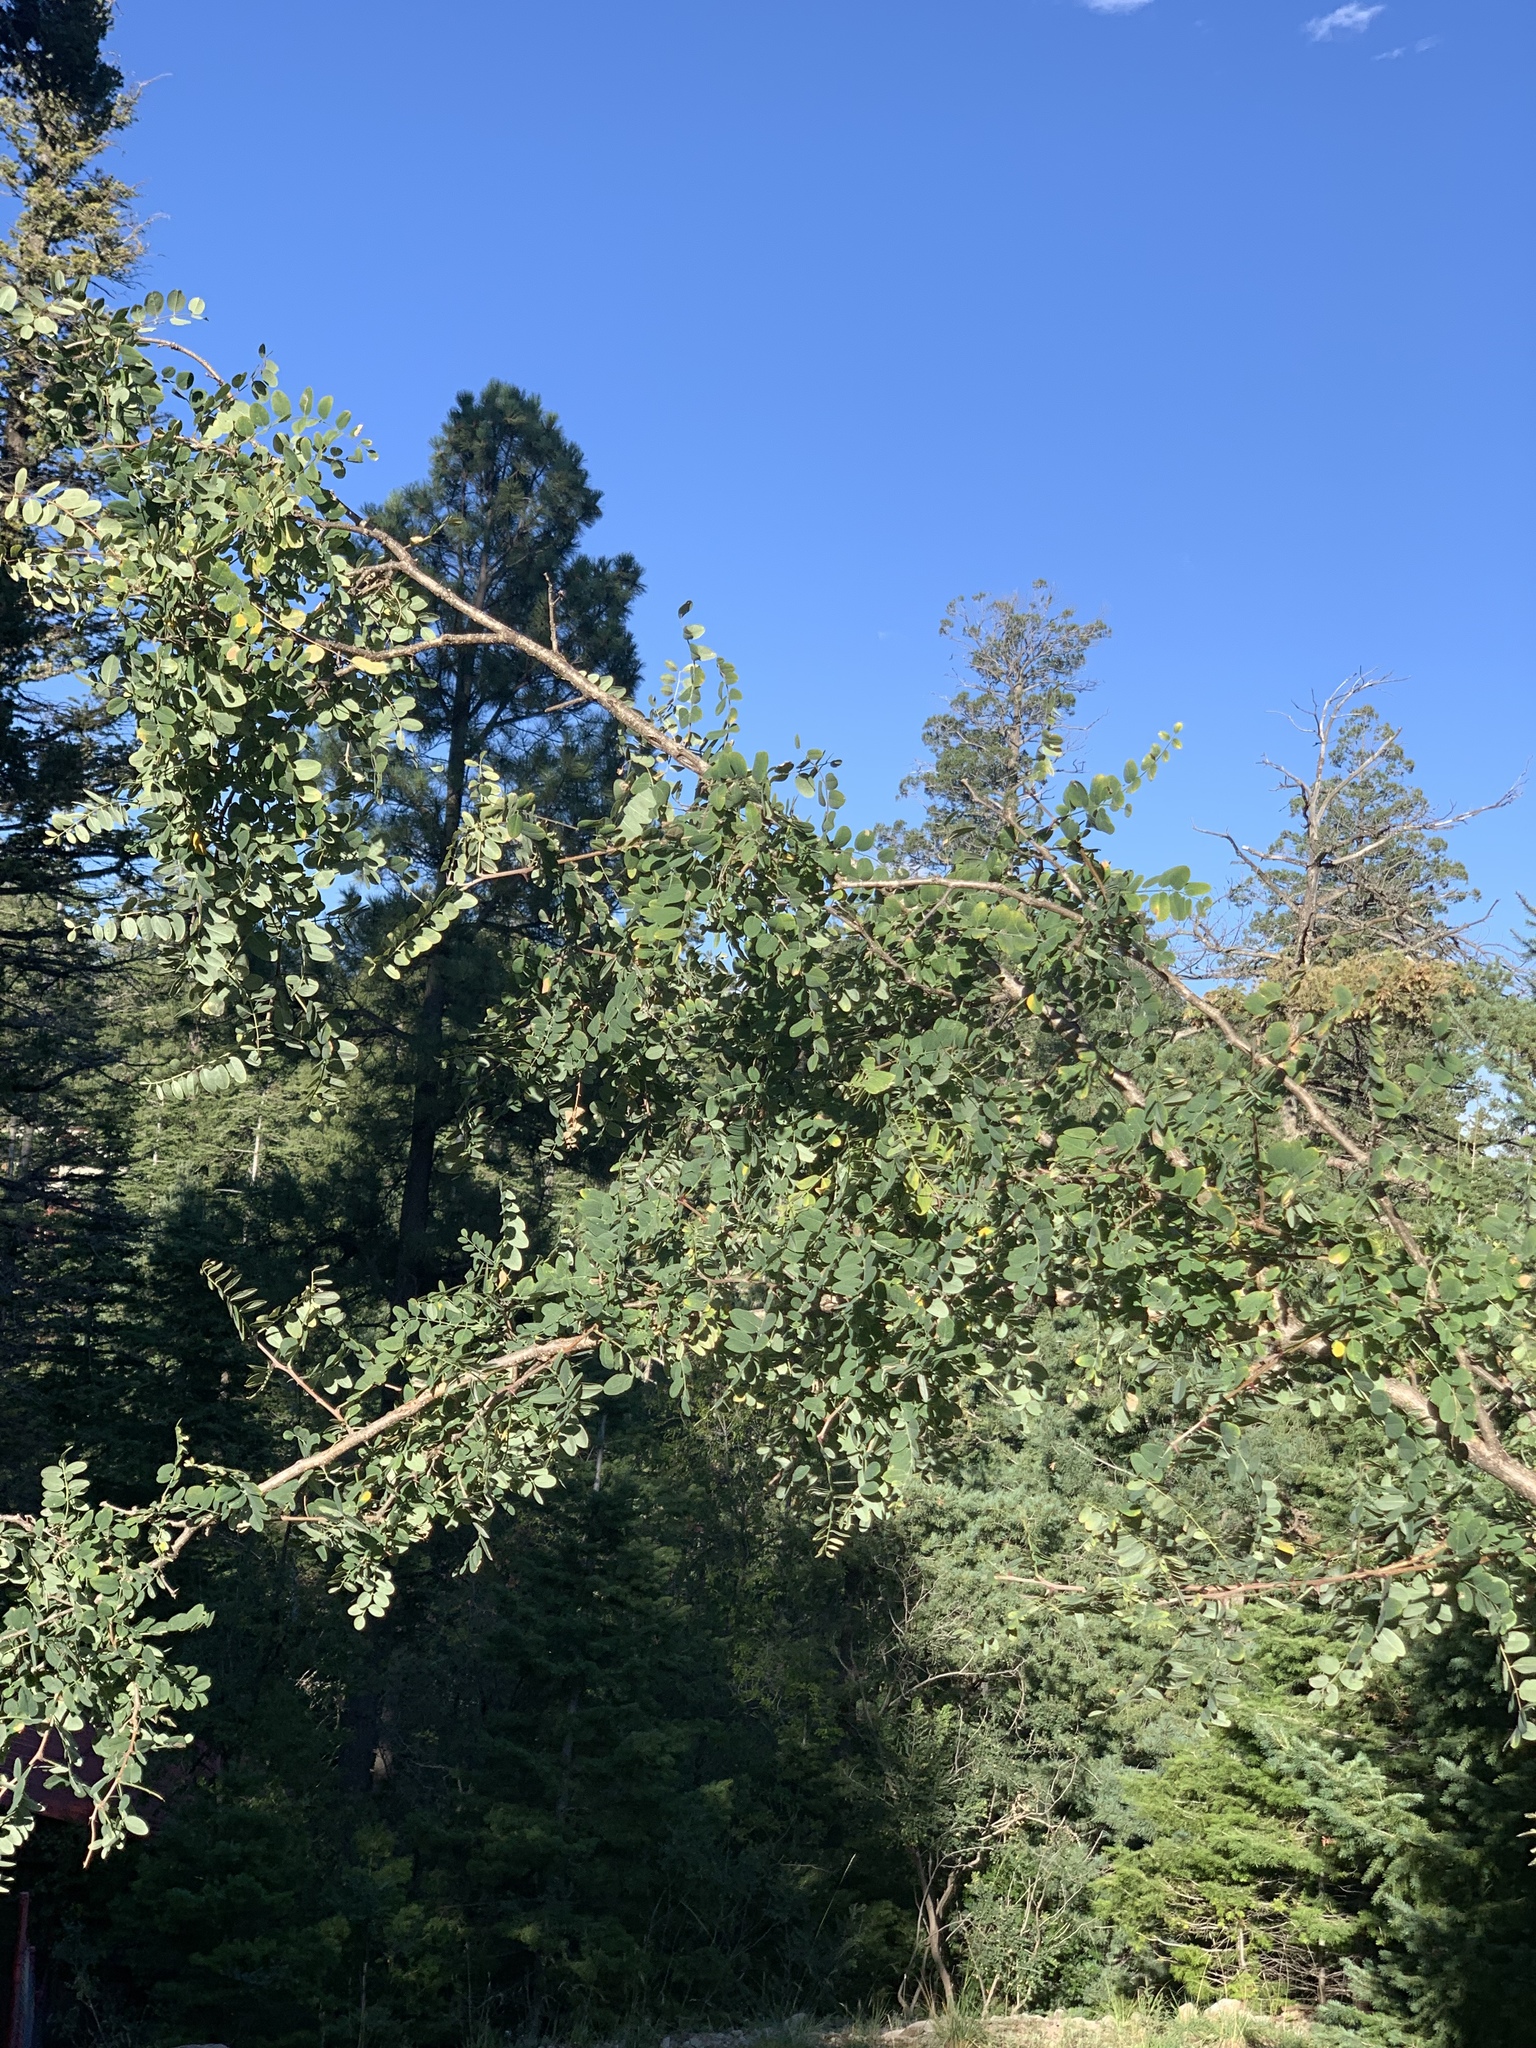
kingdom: Plantae
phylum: Tracheophyta
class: Magnoliopsida
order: Fabales
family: Fabaceae
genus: Robinia
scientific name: Robinia neomexicana
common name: New mexico locust
